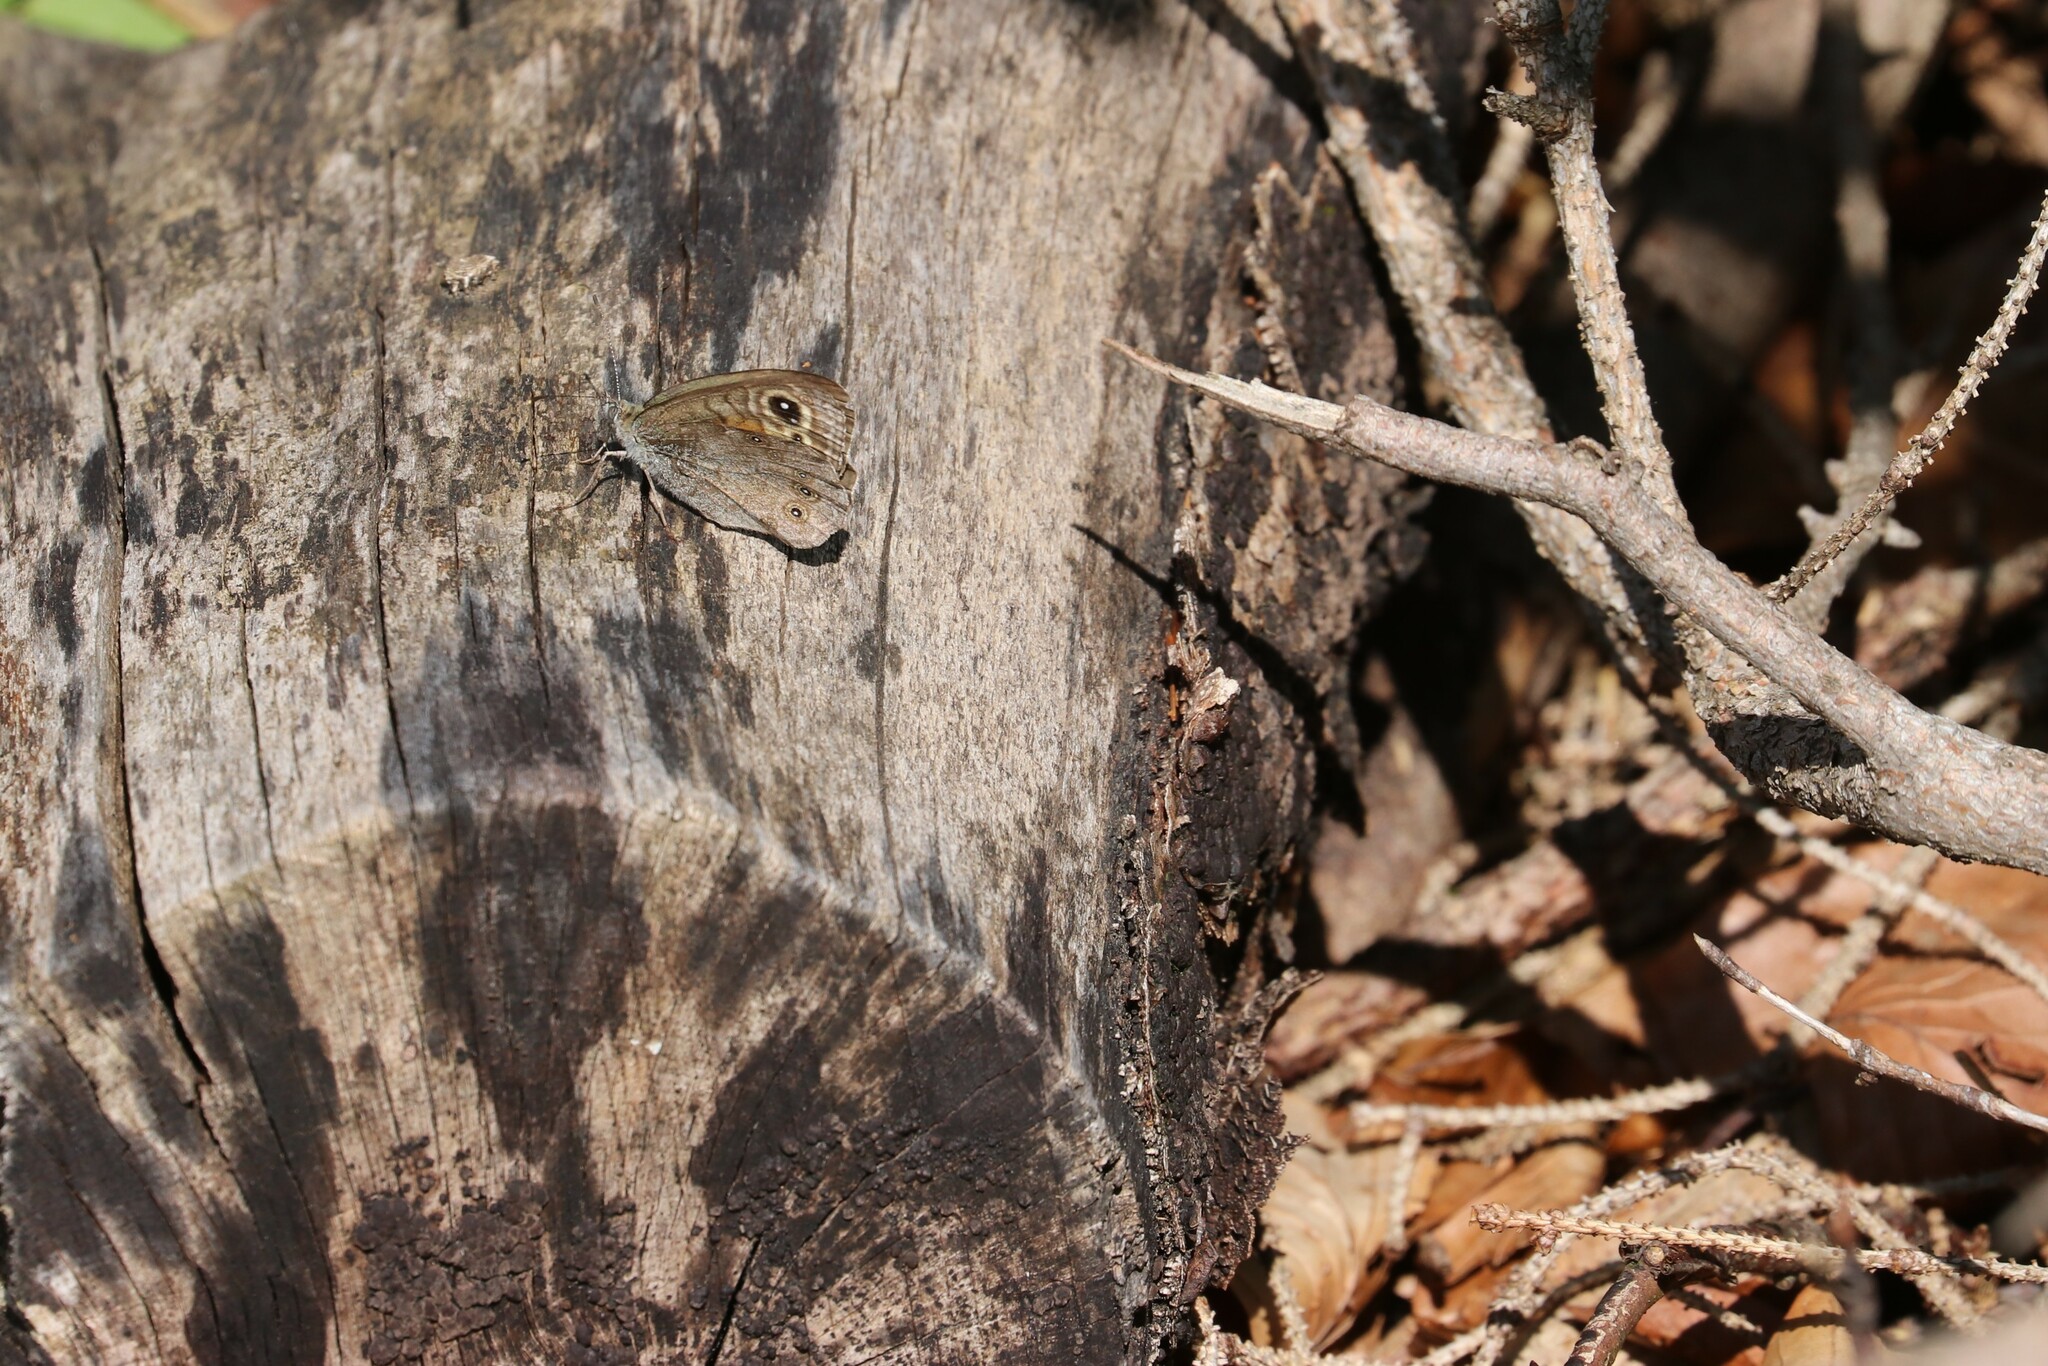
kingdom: Animalia
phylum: Arthropoda
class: Insecta
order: Lepidoptera
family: Nymphalidae
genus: Pararge
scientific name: Pararge Lasiommata maera
